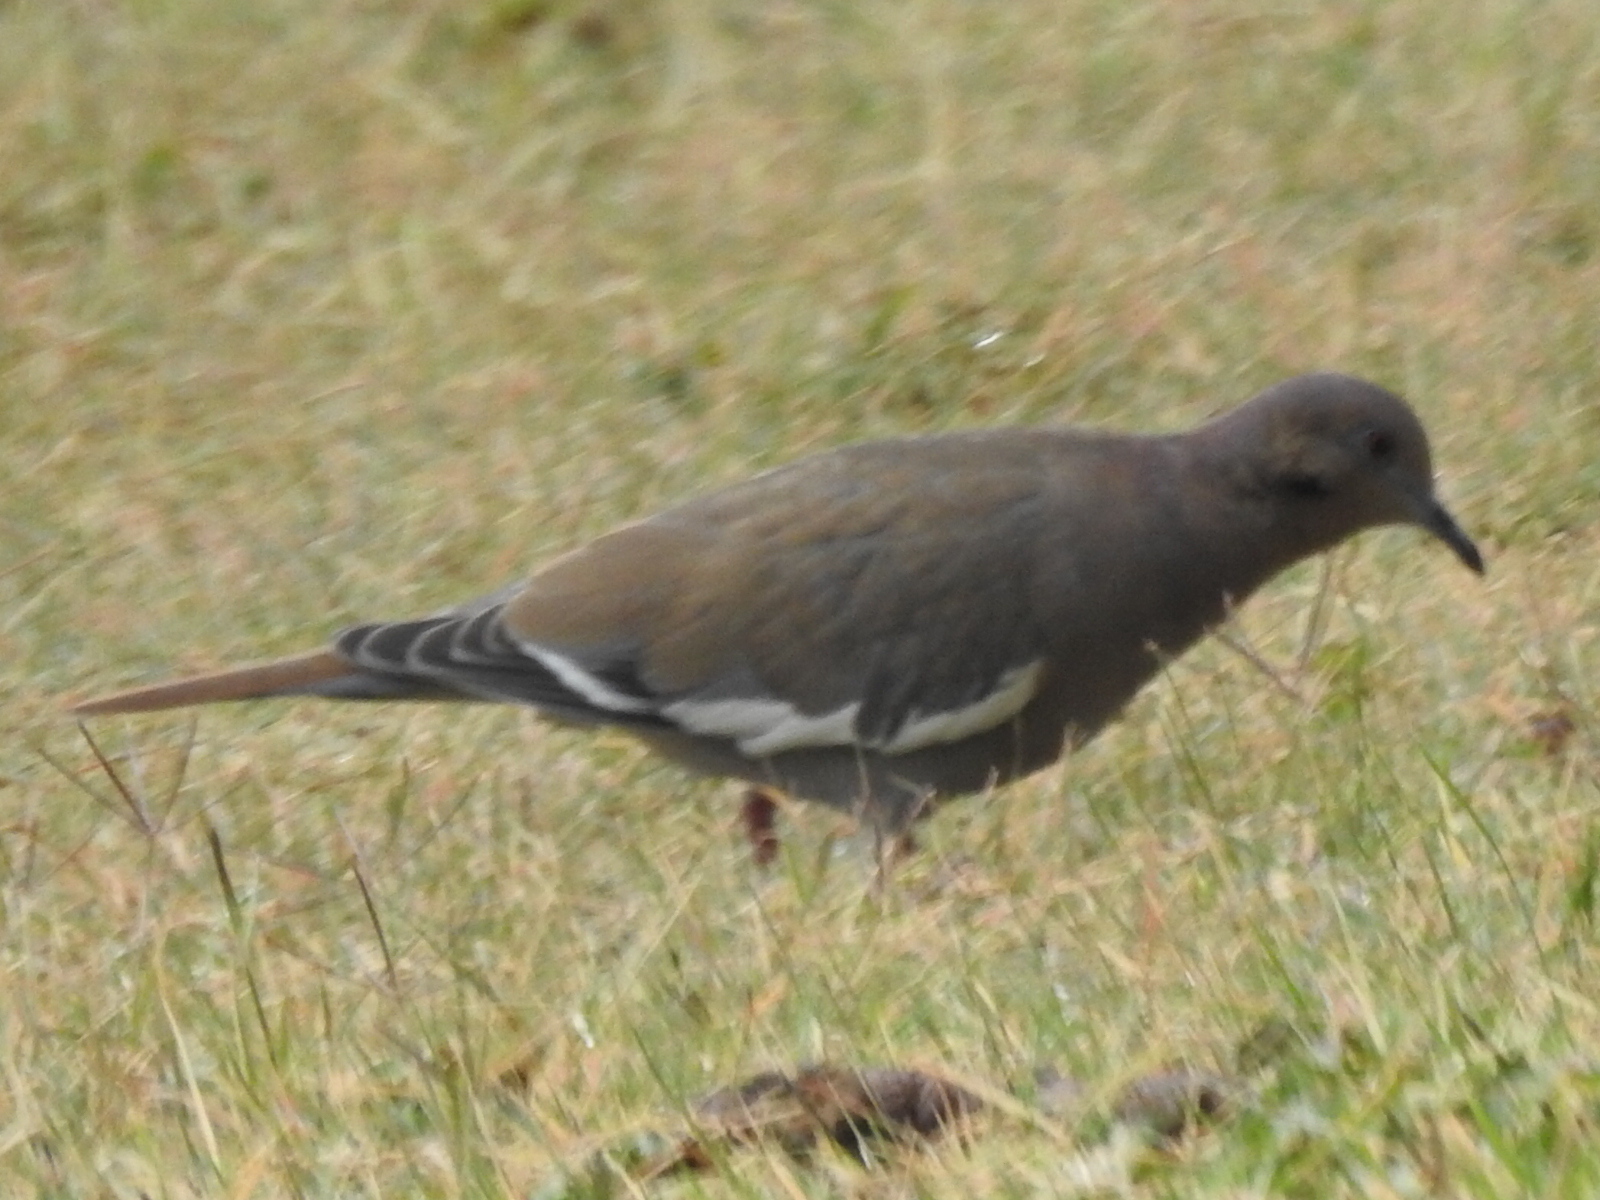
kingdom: Animalia
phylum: Chordata
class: Aves
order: Columbiformes
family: Columbidae
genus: Zenaida
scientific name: Zenaida asiatica
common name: White-winged dove
